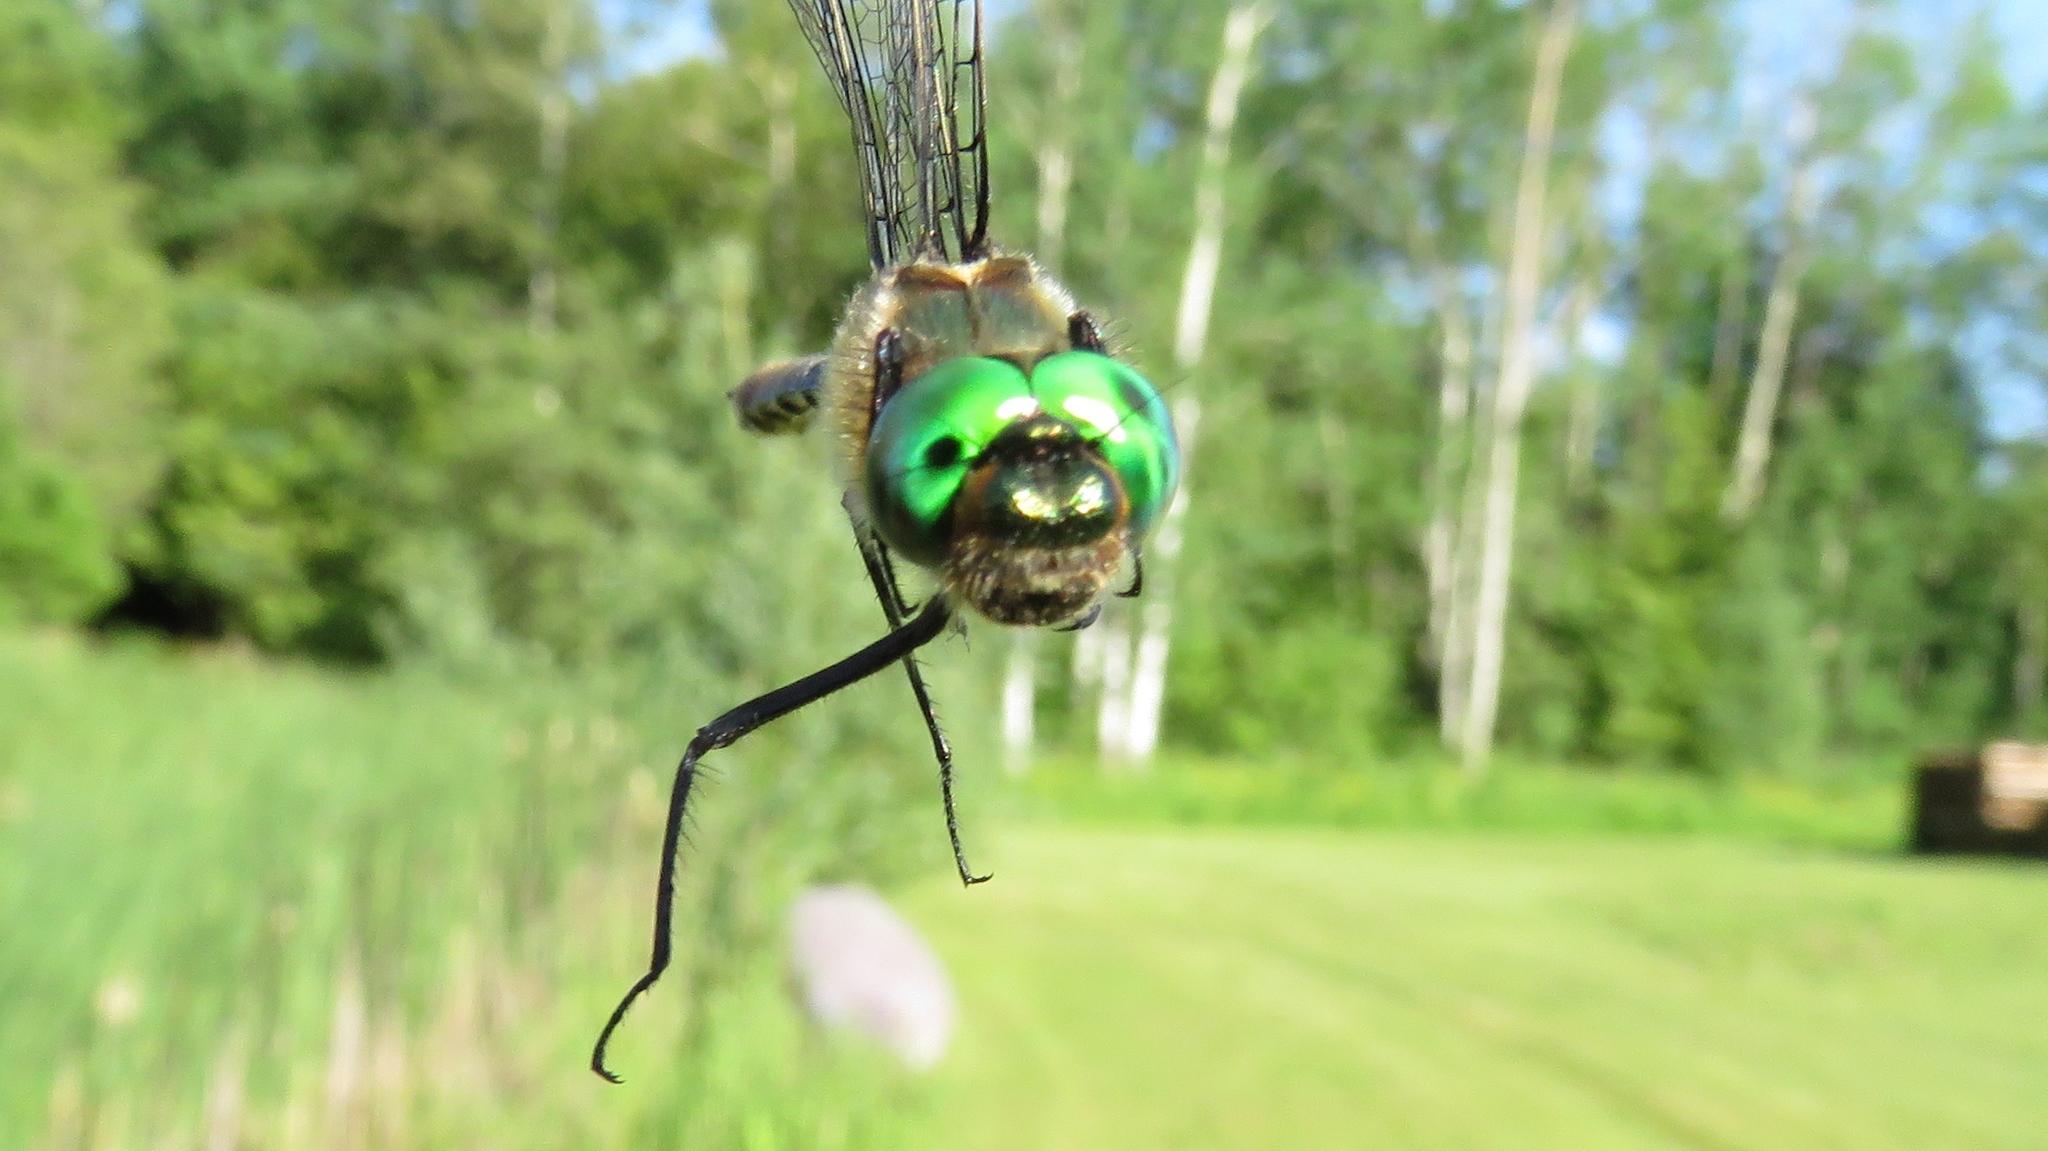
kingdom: Animalia
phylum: Arthropoda
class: Insecta
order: Odonata
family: Corduliidae
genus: Cordulia
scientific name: Cordulia shurtleffii
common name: American emerald
